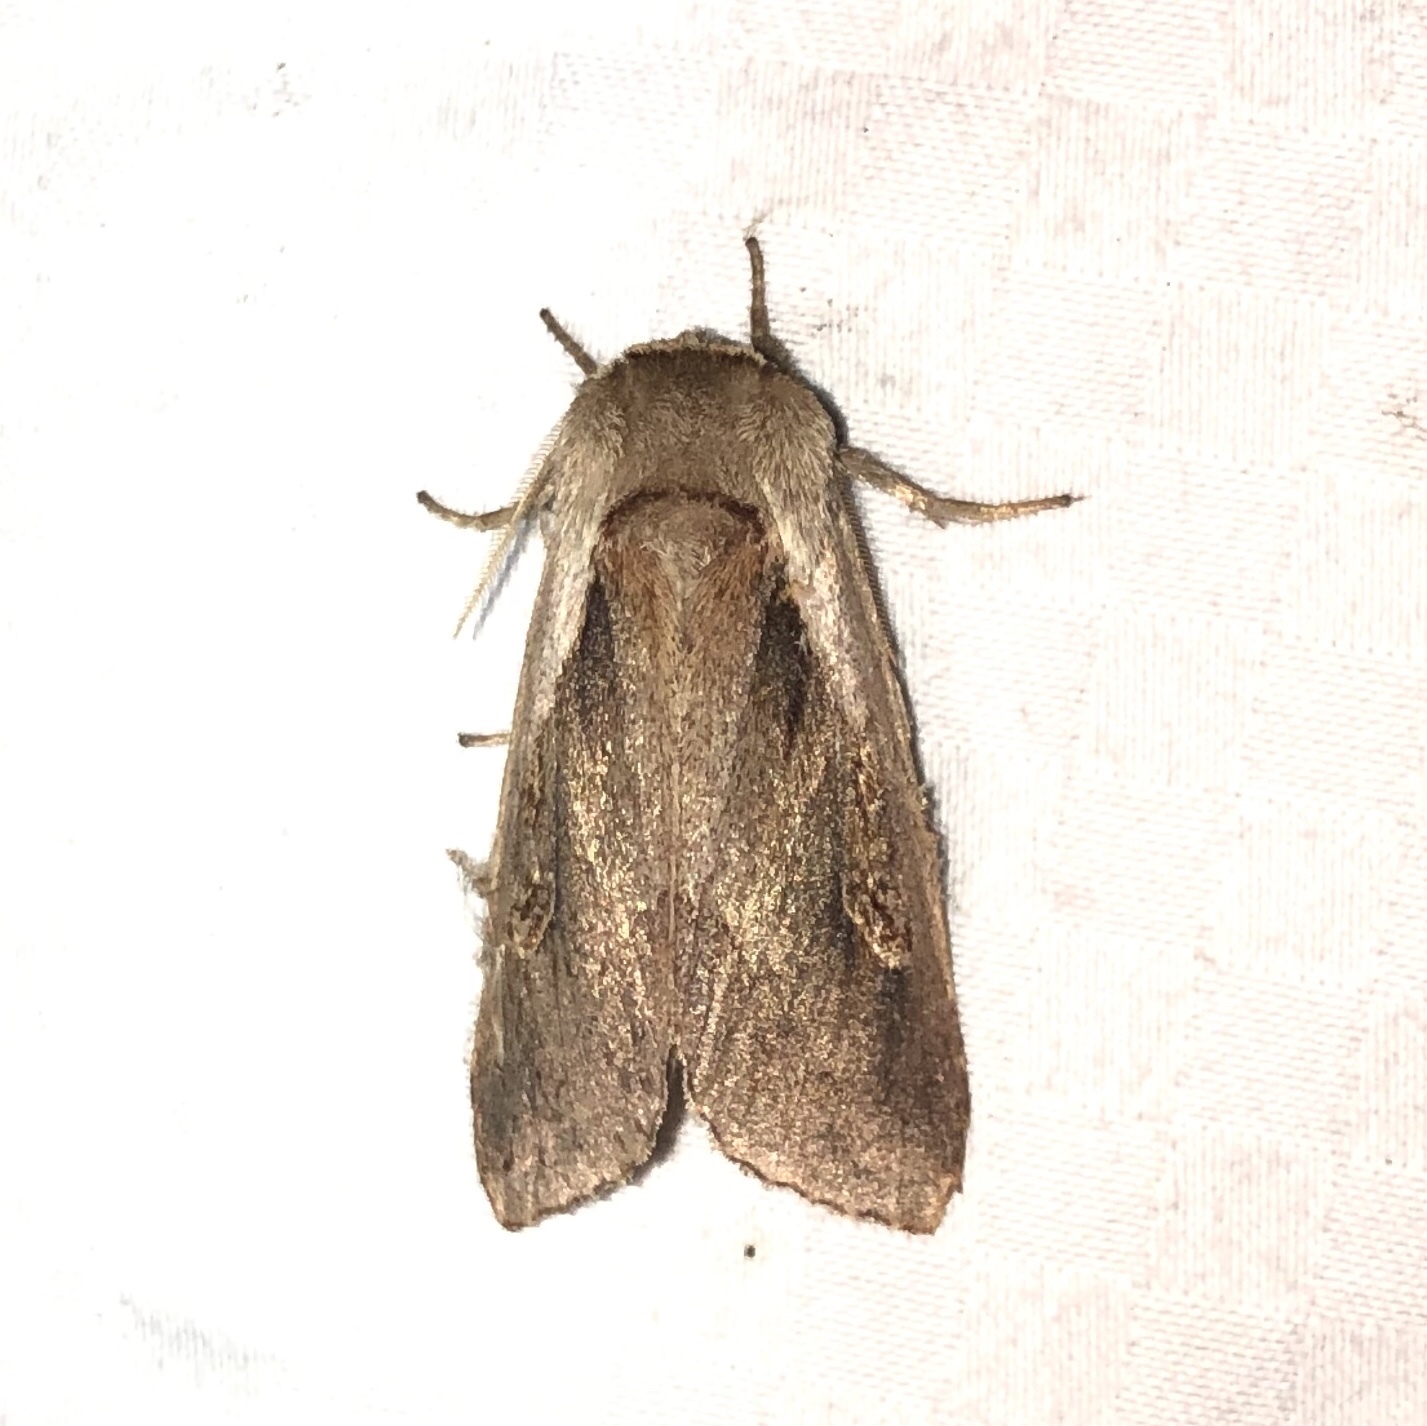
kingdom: Animalia
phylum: Arthropoda
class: Insecta
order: Lepidoptera
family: Noctuidae
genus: Bellura
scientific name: Bellura obliqua
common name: Cattail borer moth
